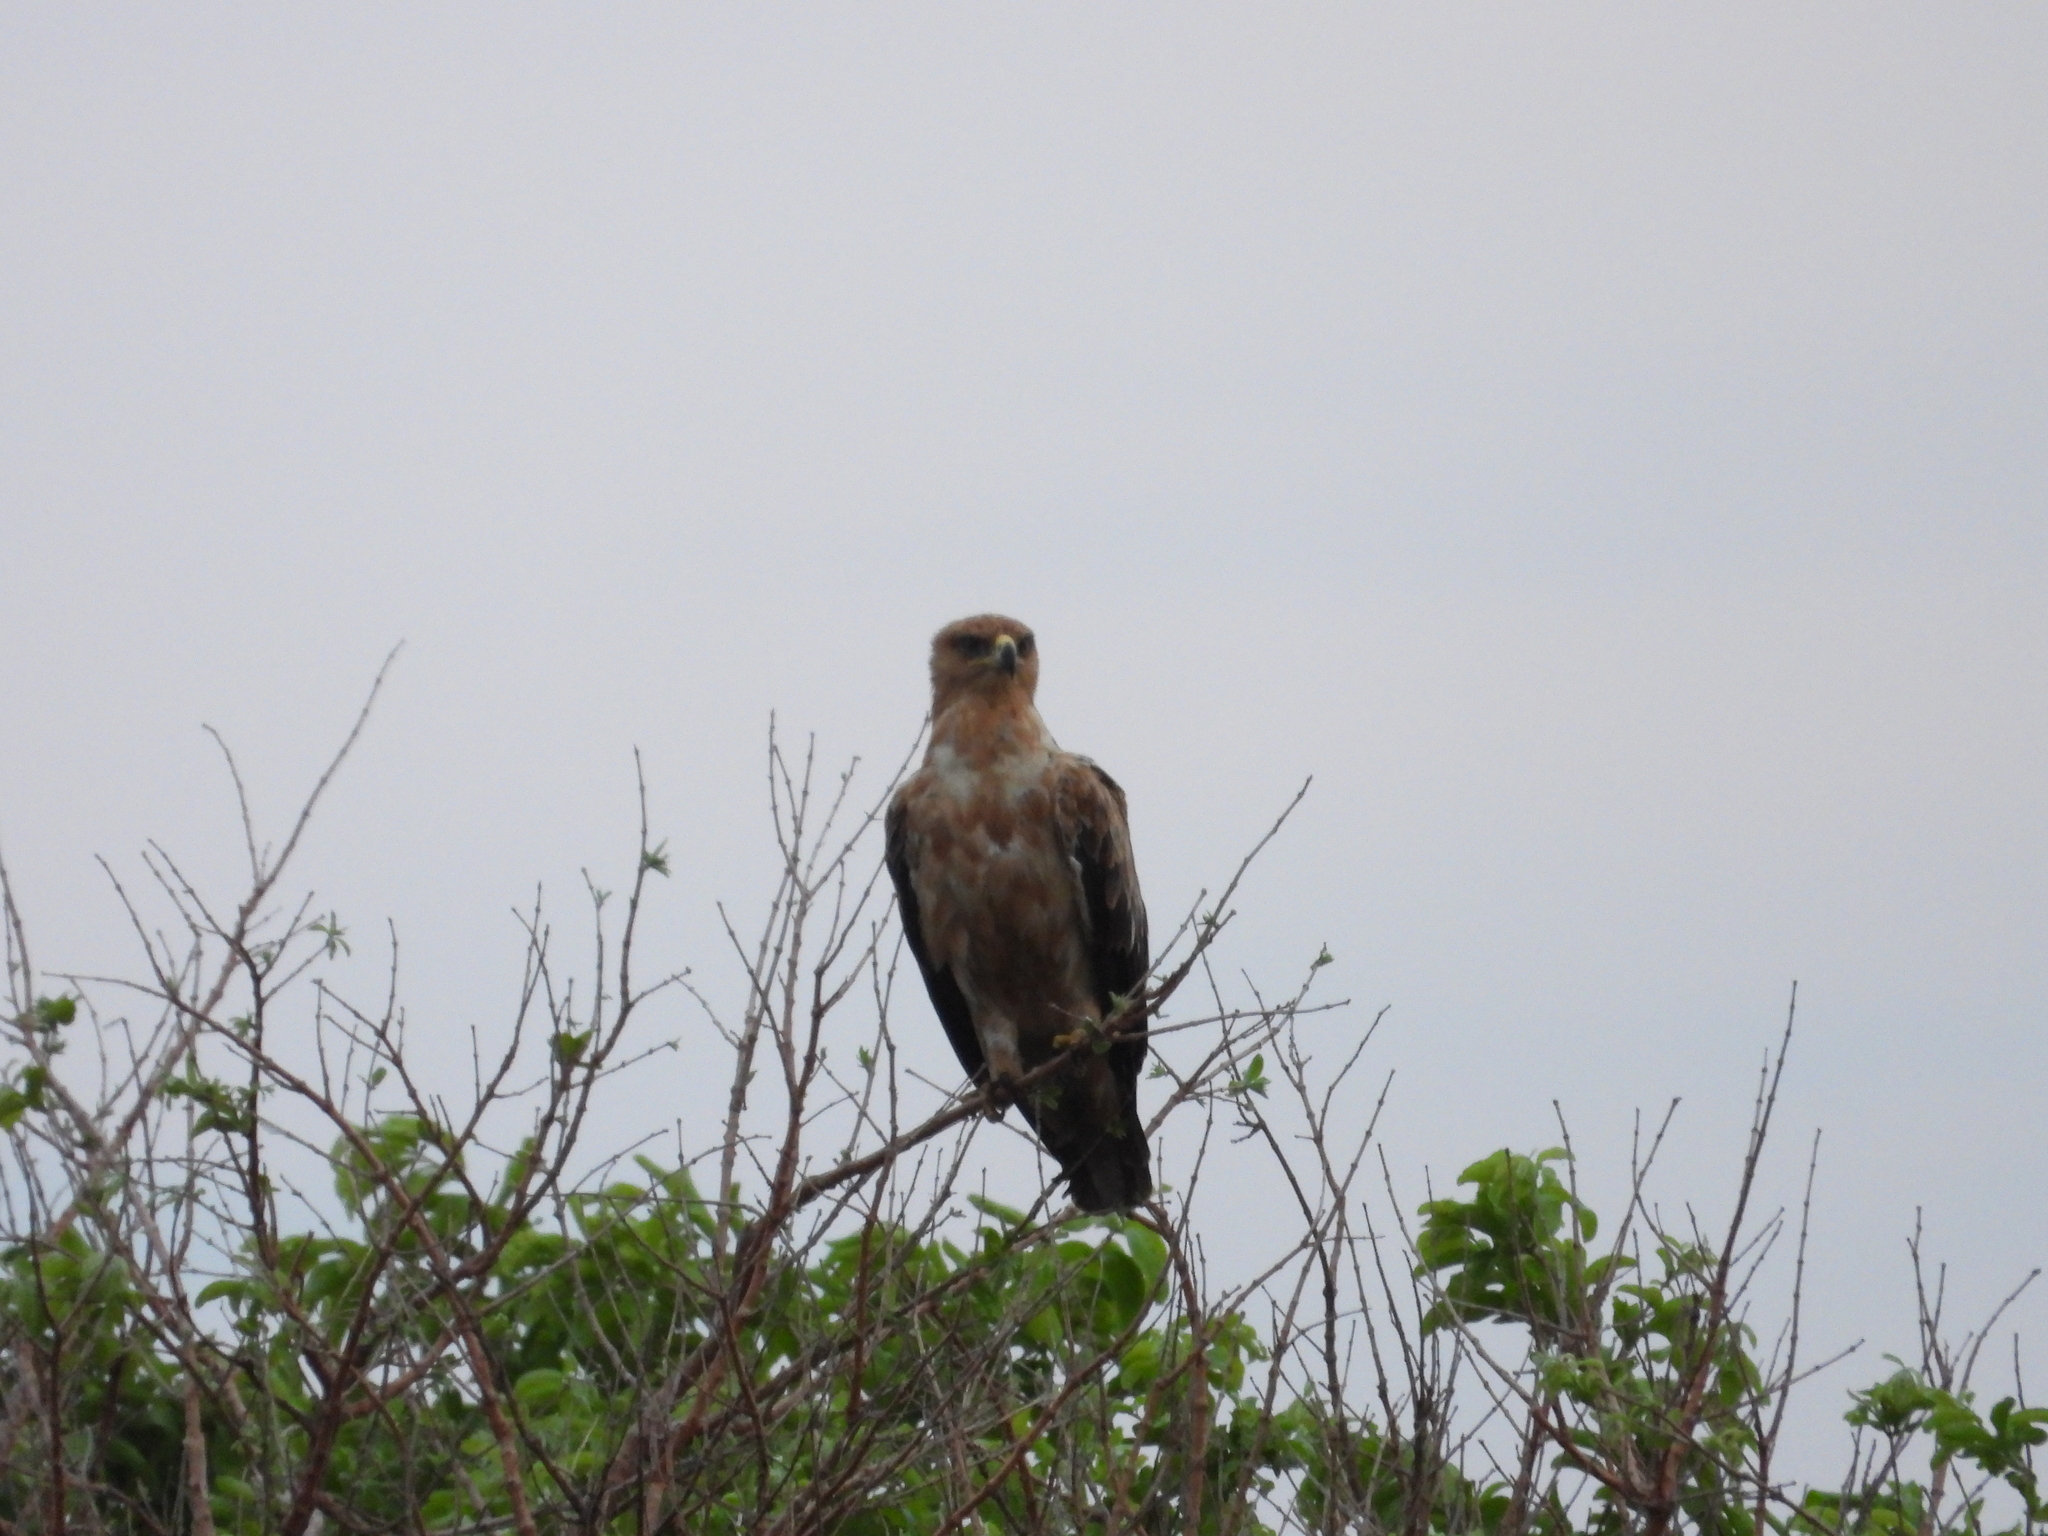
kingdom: Animalia
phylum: Chordata
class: Aves
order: Accipitriformes
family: Accipitridae
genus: Aquila
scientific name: Aquila rapax
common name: Tawny eagle
